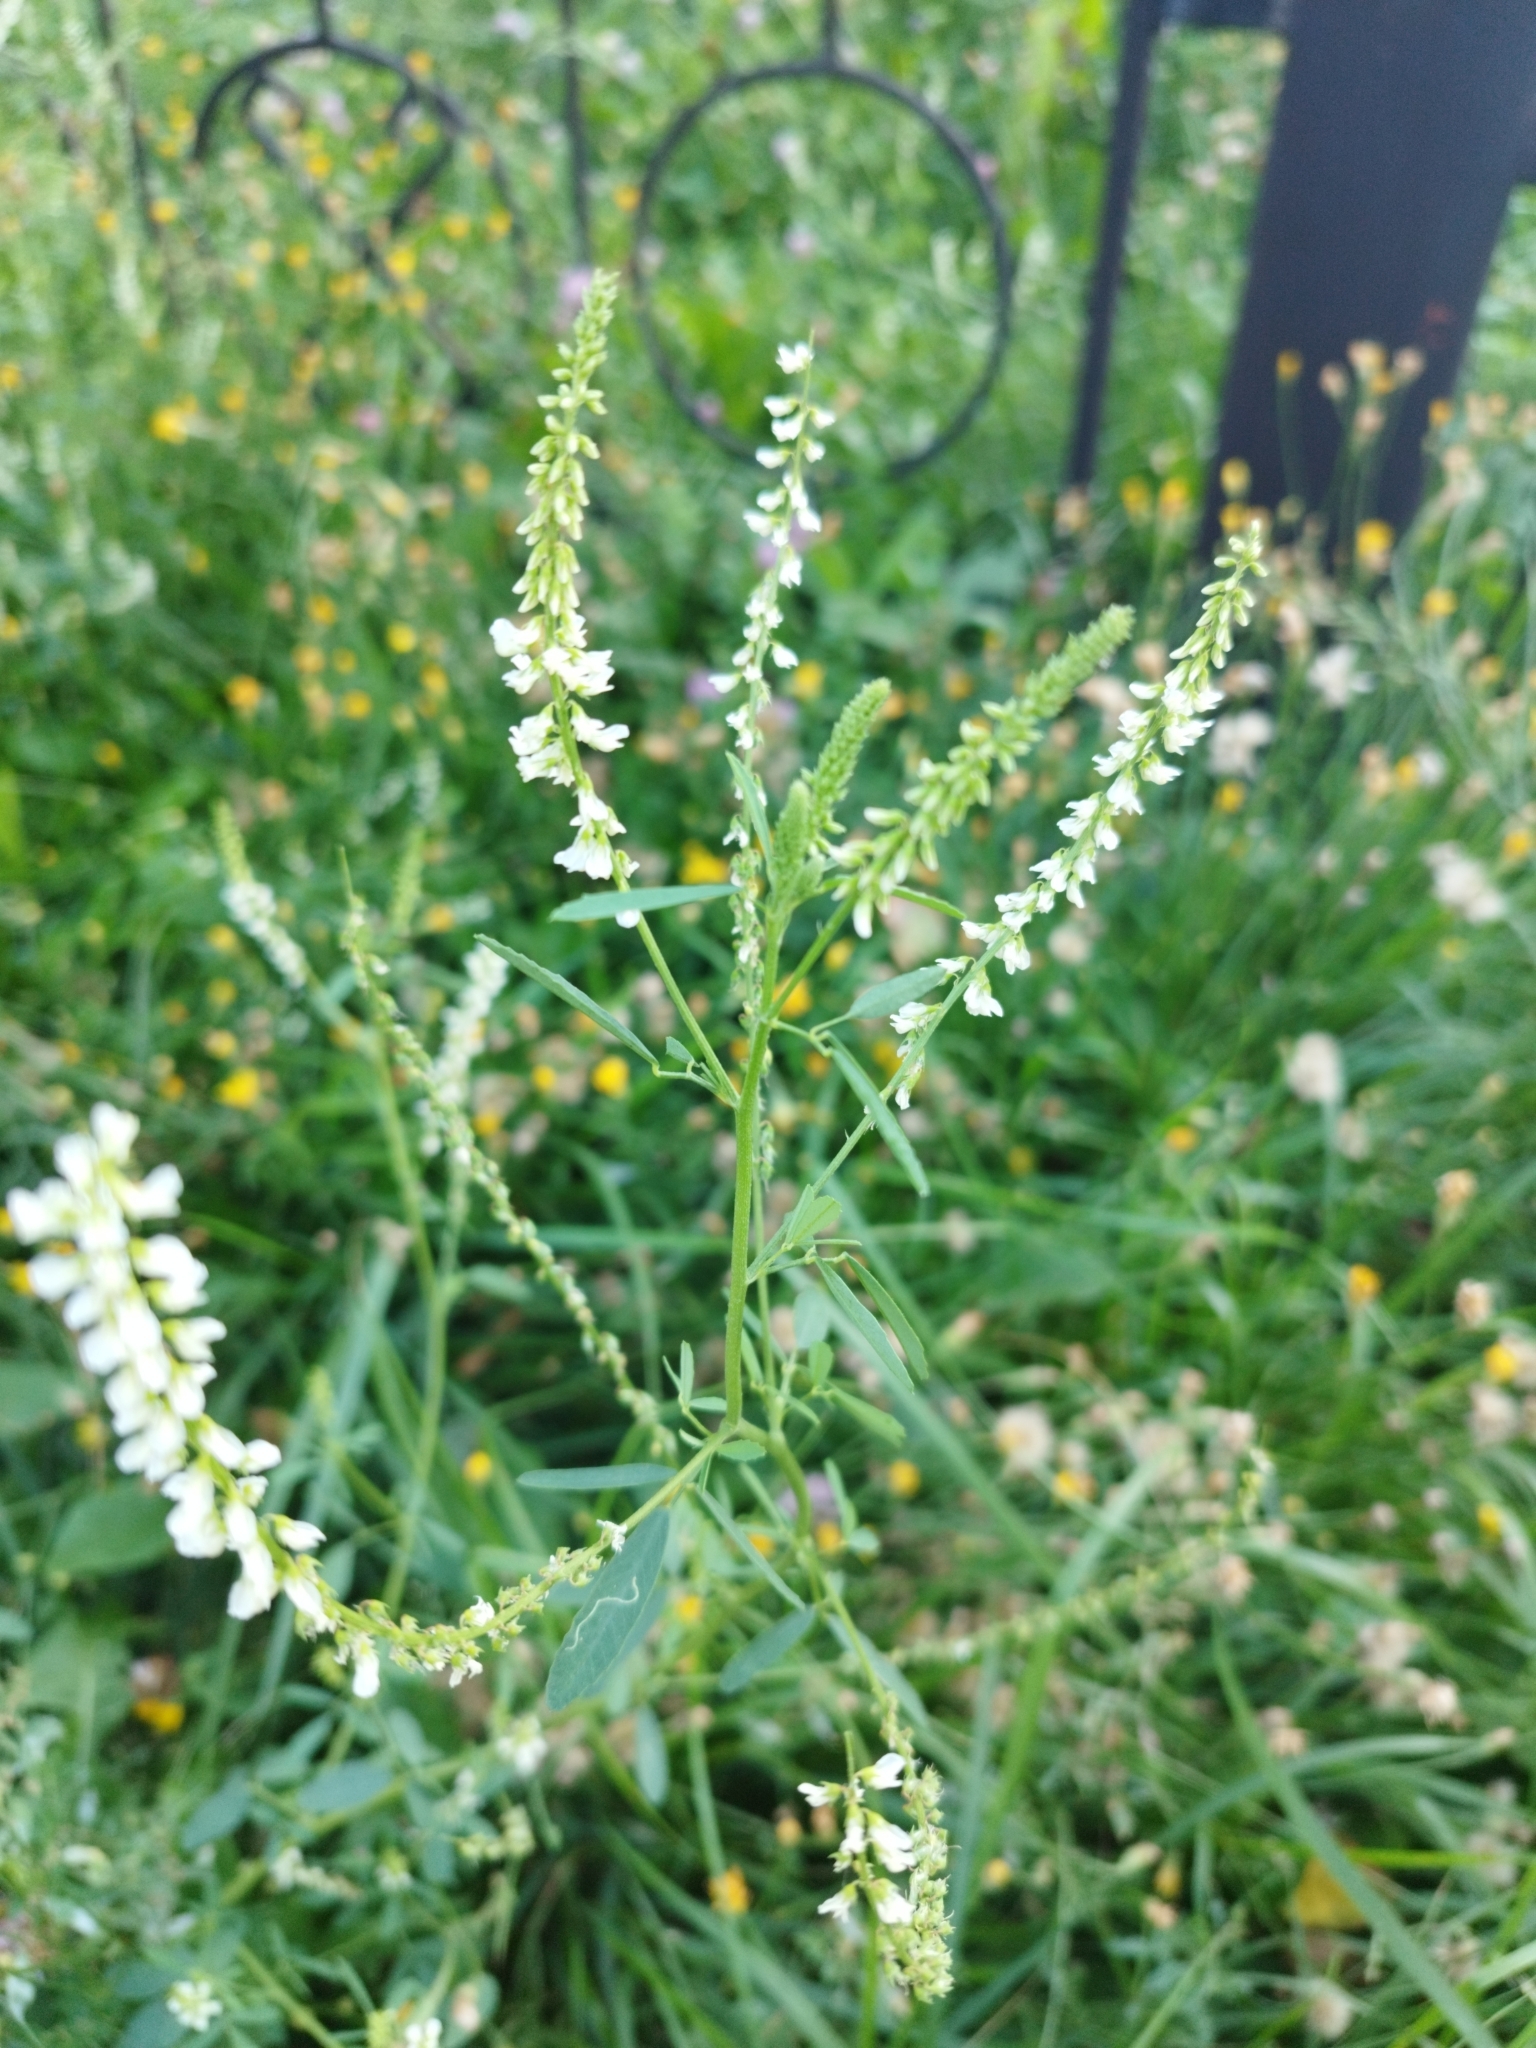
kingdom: Plantae
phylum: Tracheophyta
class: Magnoliopsida
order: Fabales
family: Fabaceae
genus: Melilotus
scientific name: Melilotus albus
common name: White melilot
